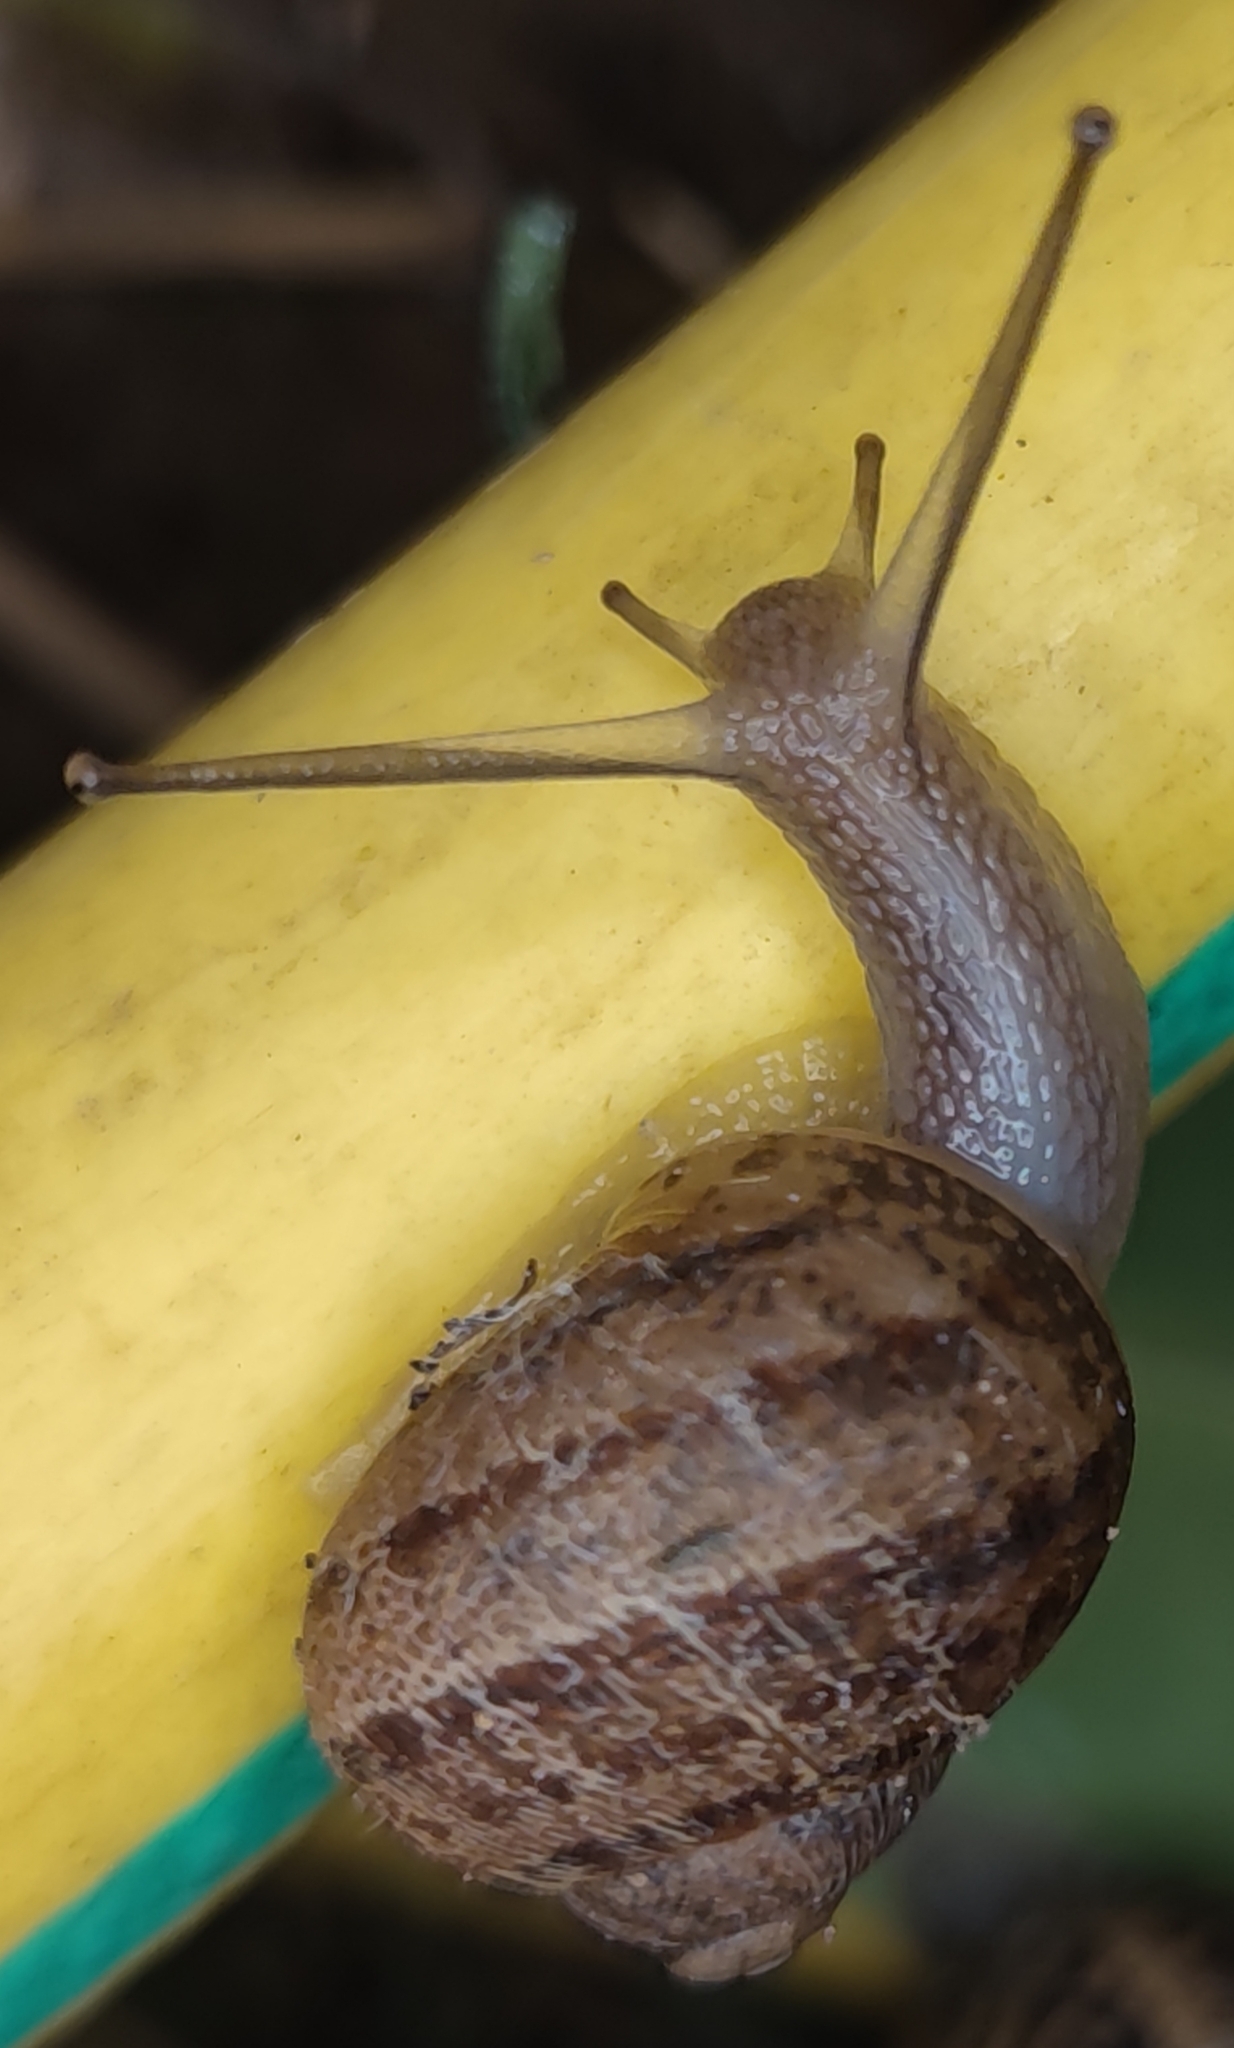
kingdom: Animalia
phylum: Mollusca
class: Gastropoda
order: Stylommatophora
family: Helicidae
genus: Cornu
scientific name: Cornu aspersum
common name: Brown garden snail
